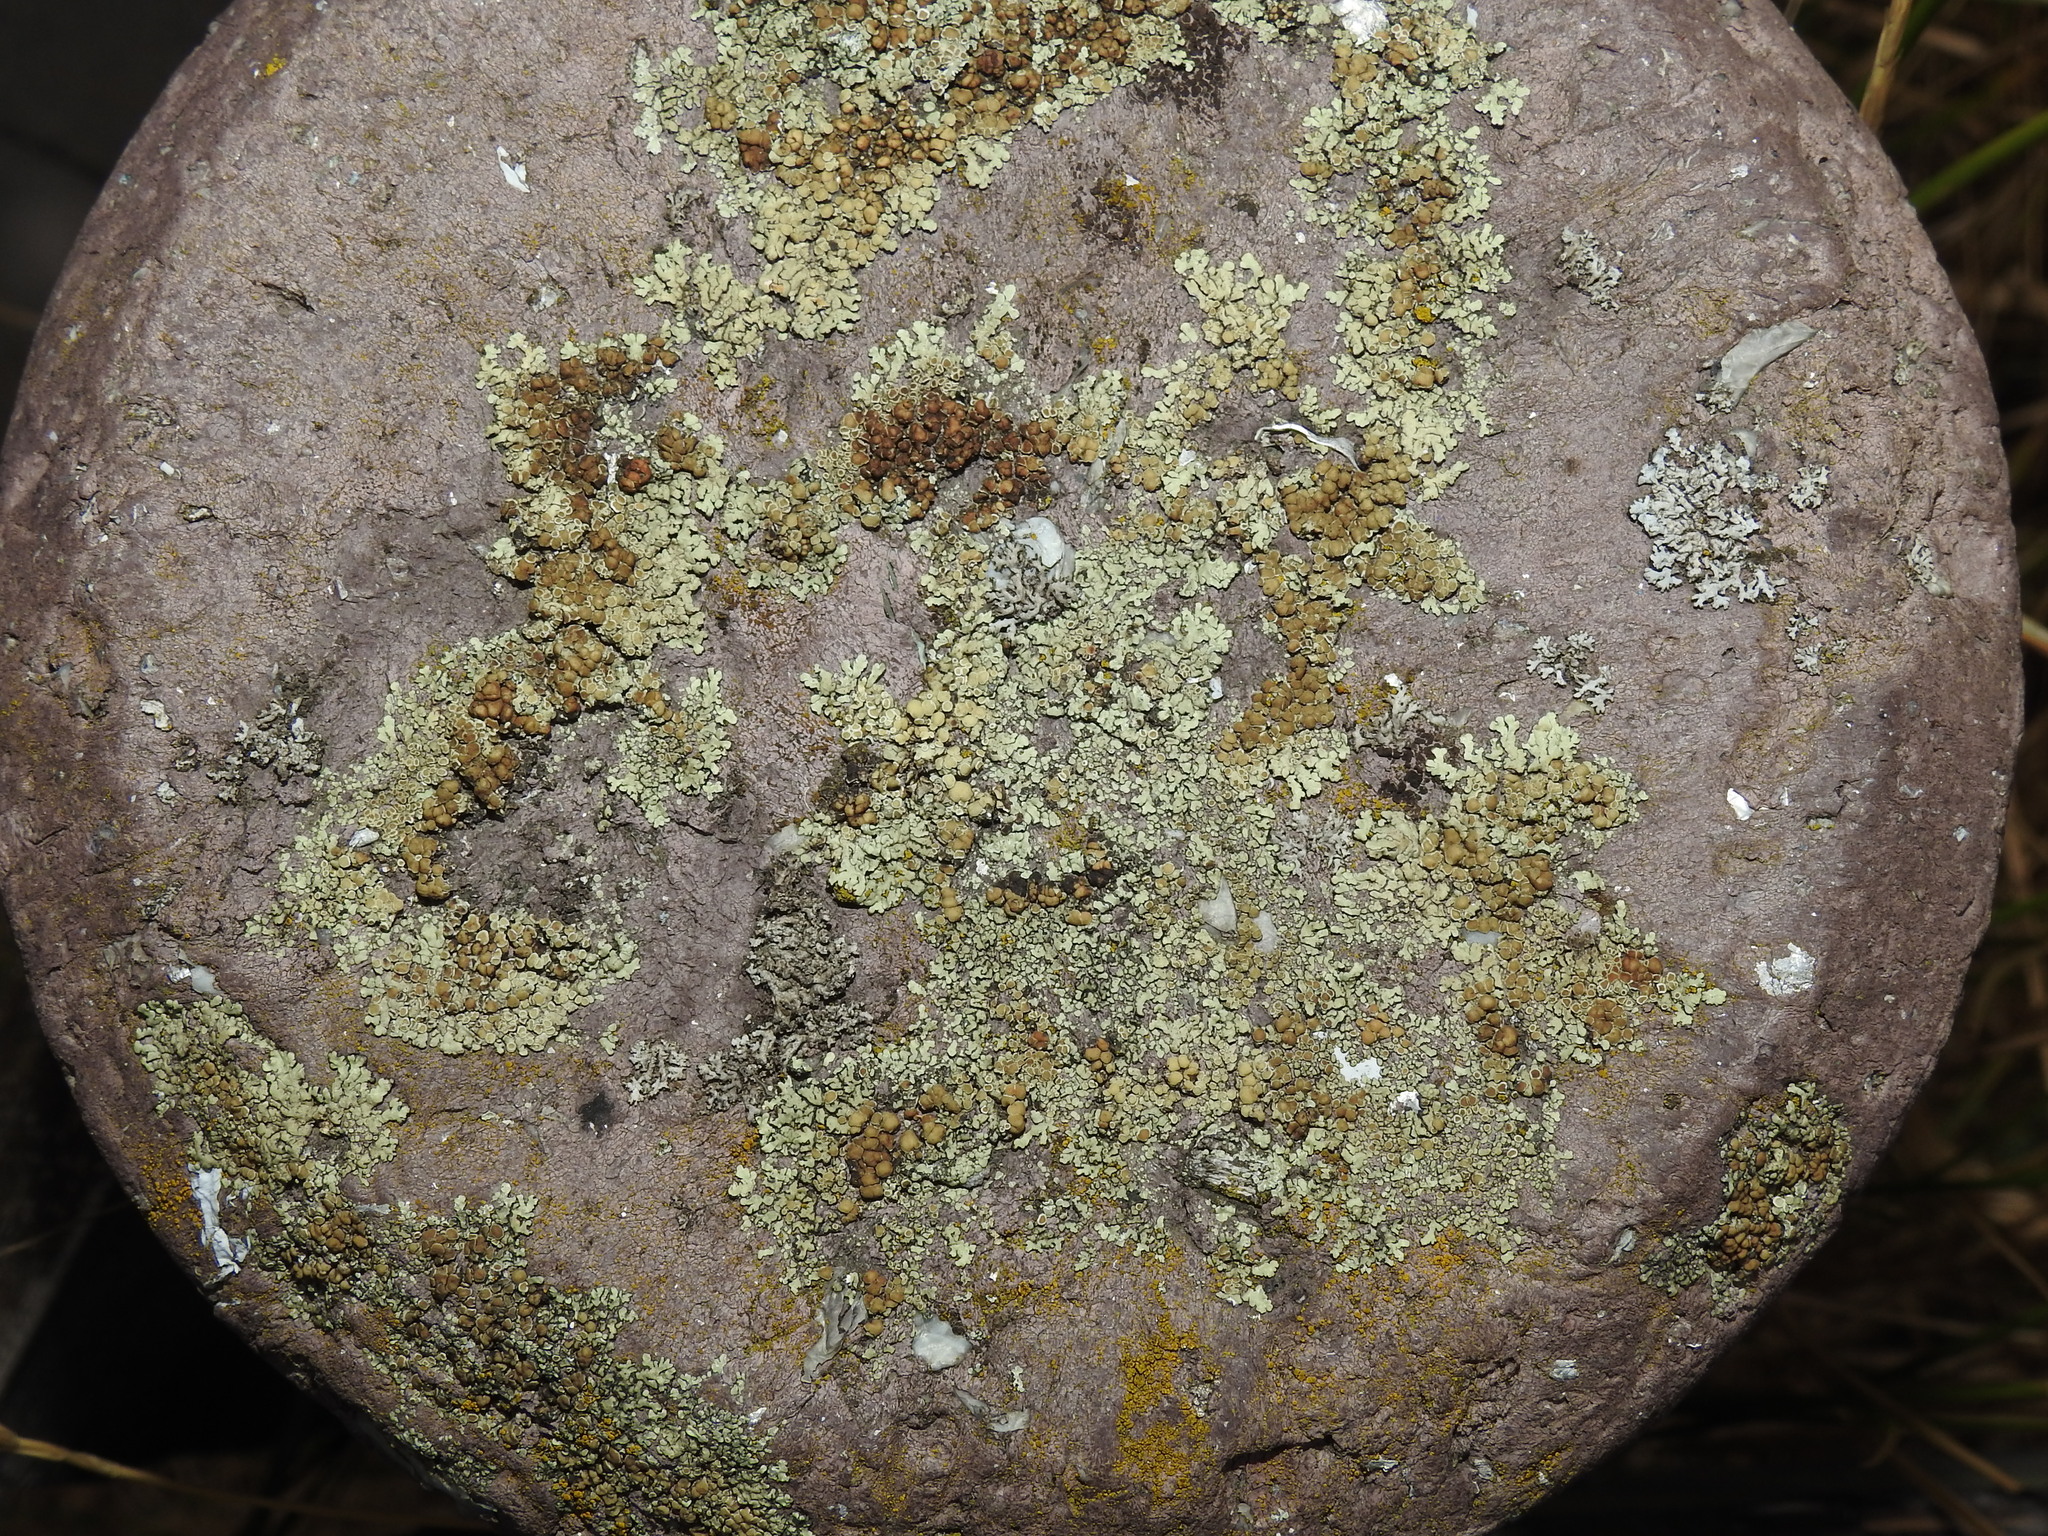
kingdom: Fungi
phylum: Ascomycota
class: Lecanoromycetes
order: Lecanorales
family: Lecanoraceae
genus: Protoparmeliopsis
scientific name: Protoparmeliopsis muralis
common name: Stonewall rim lichen
